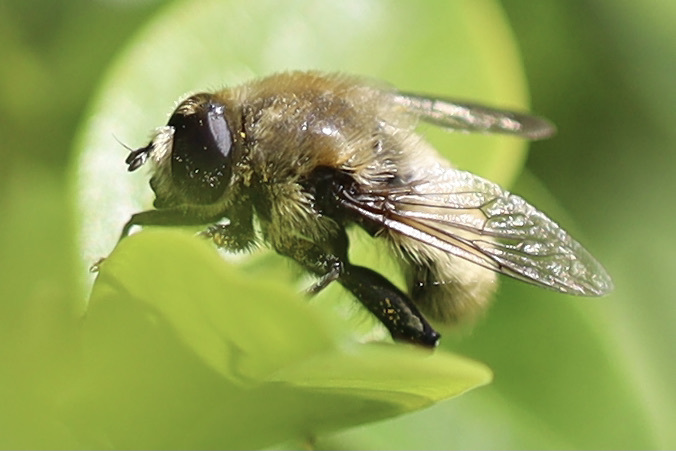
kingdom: Animalia
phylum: Arthropoda
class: Insecta
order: Diptera
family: Syrphidae
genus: Merodon
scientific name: Merodon equestris
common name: Greater bulb-fly
